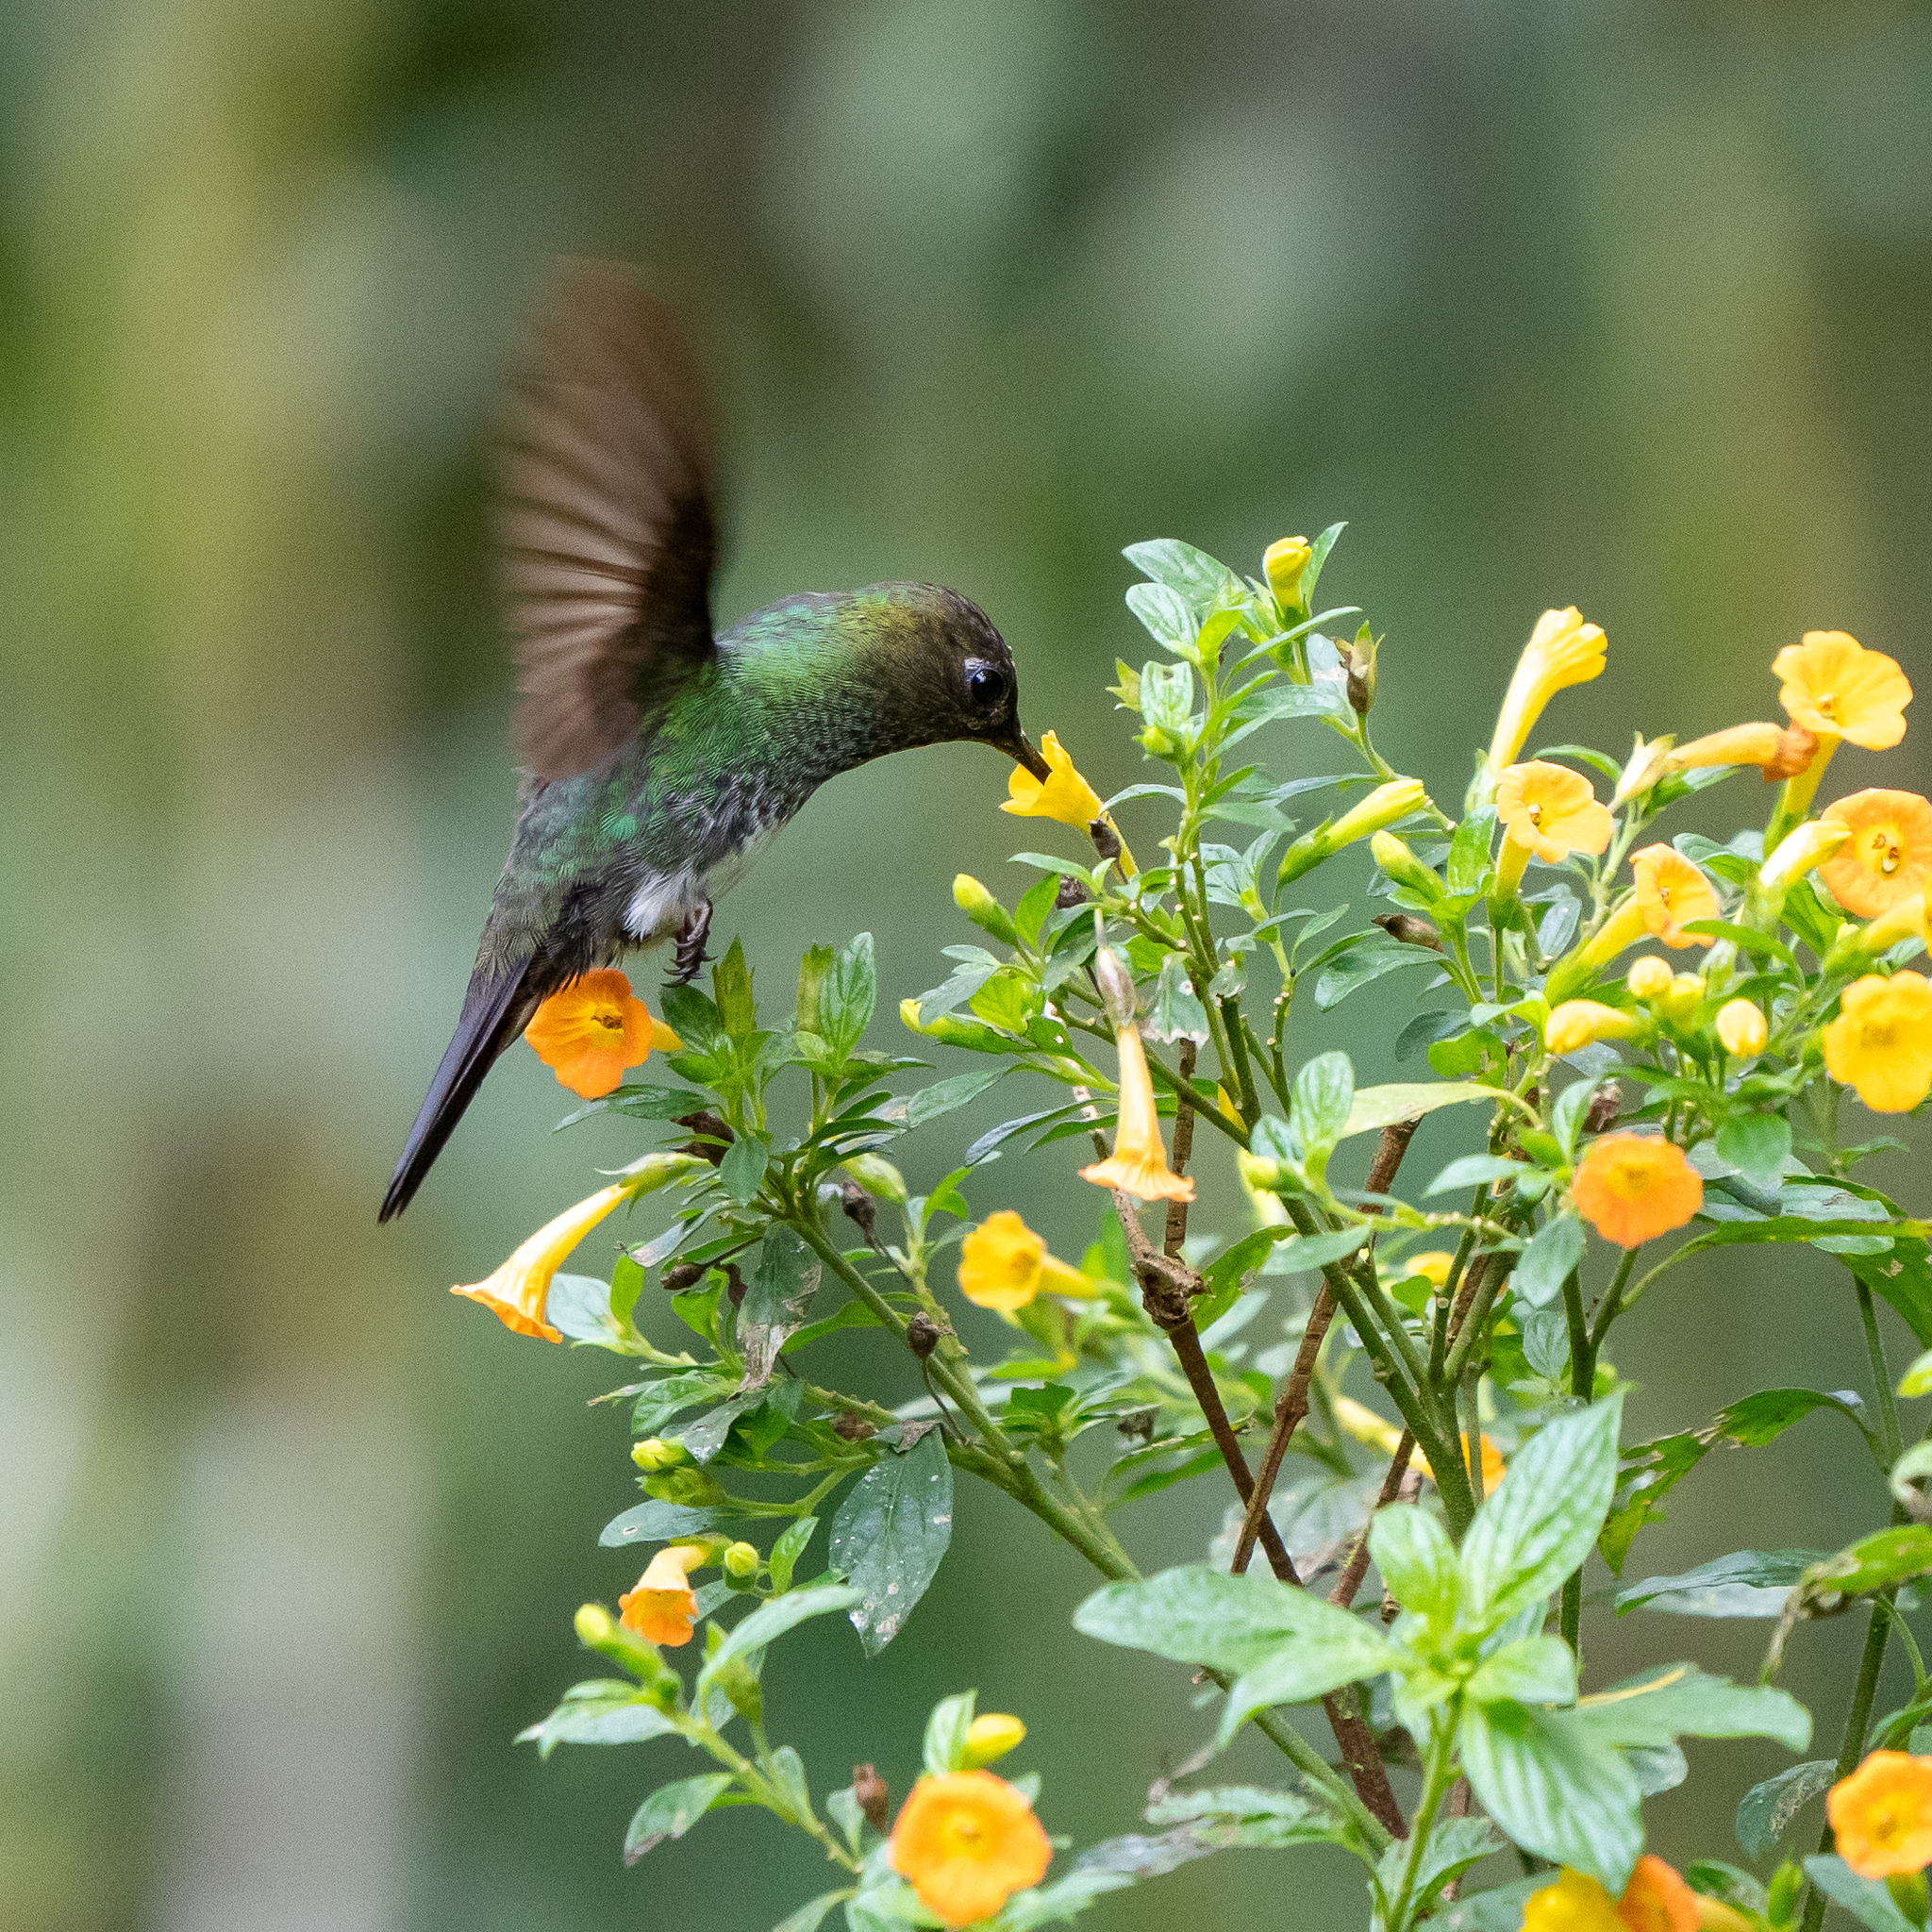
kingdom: Animalia
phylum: Chordata
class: Aves
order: Apodiformes
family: Trochilidae
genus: Haplophaedia
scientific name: Haplophaedia aureliae
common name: Greenish puffleg
